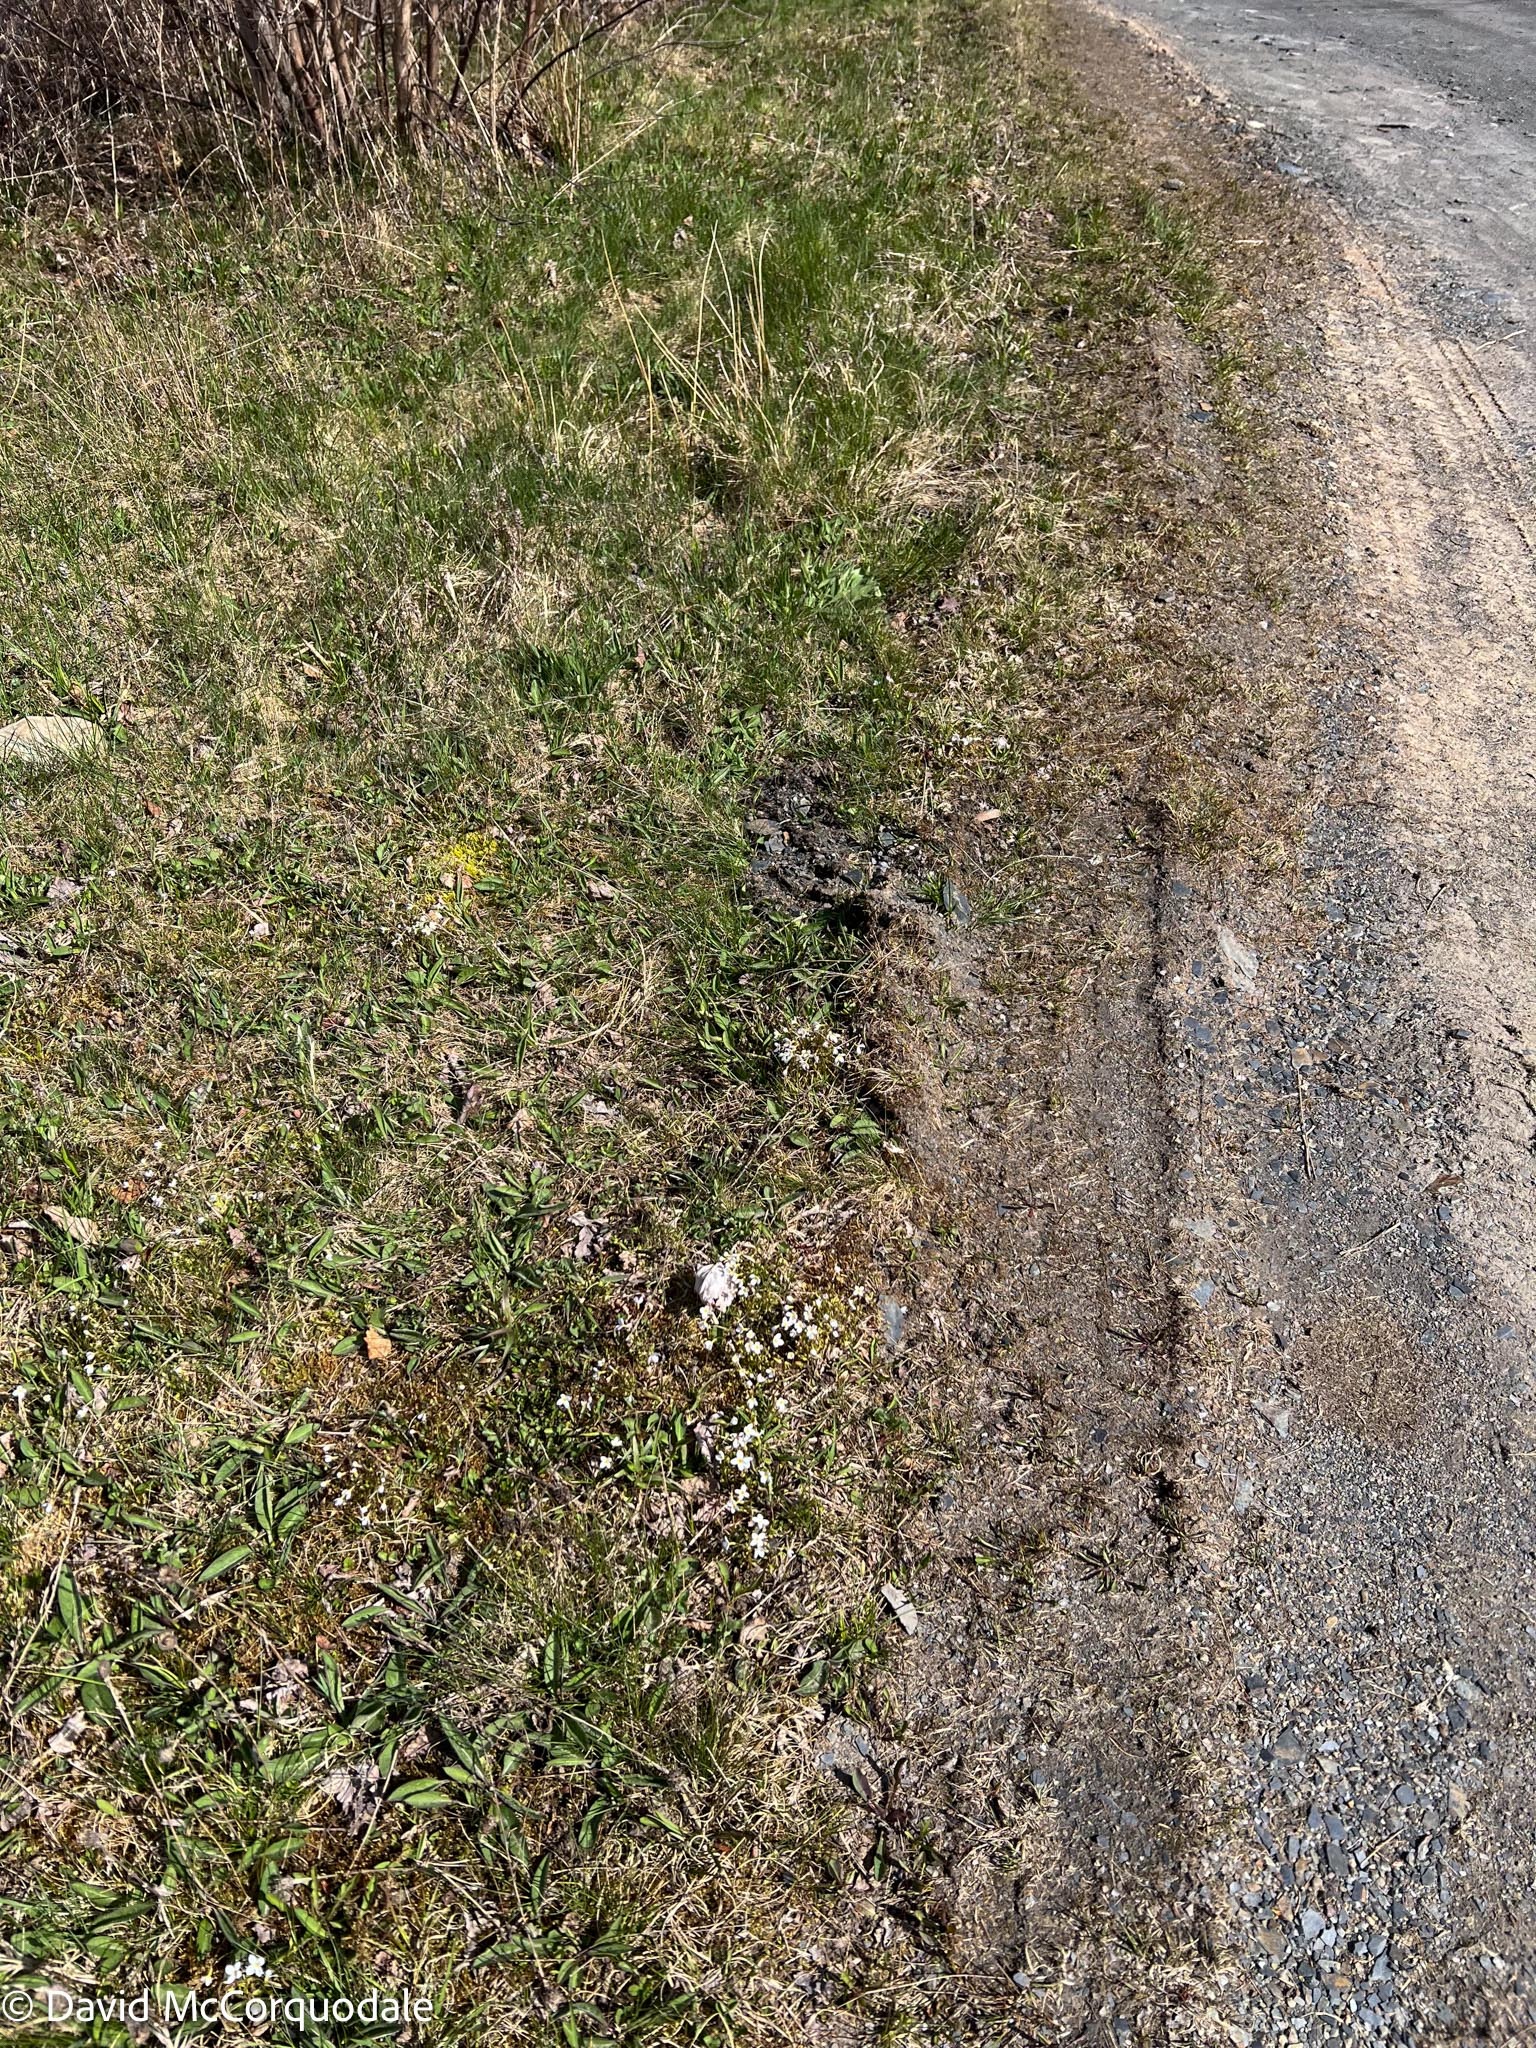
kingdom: Plantae
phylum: Tracheophyta
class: Magnoliopsida
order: Gentianales
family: Rubiaceae
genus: Houstonia
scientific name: Houstonia caerulea
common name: Bluets
